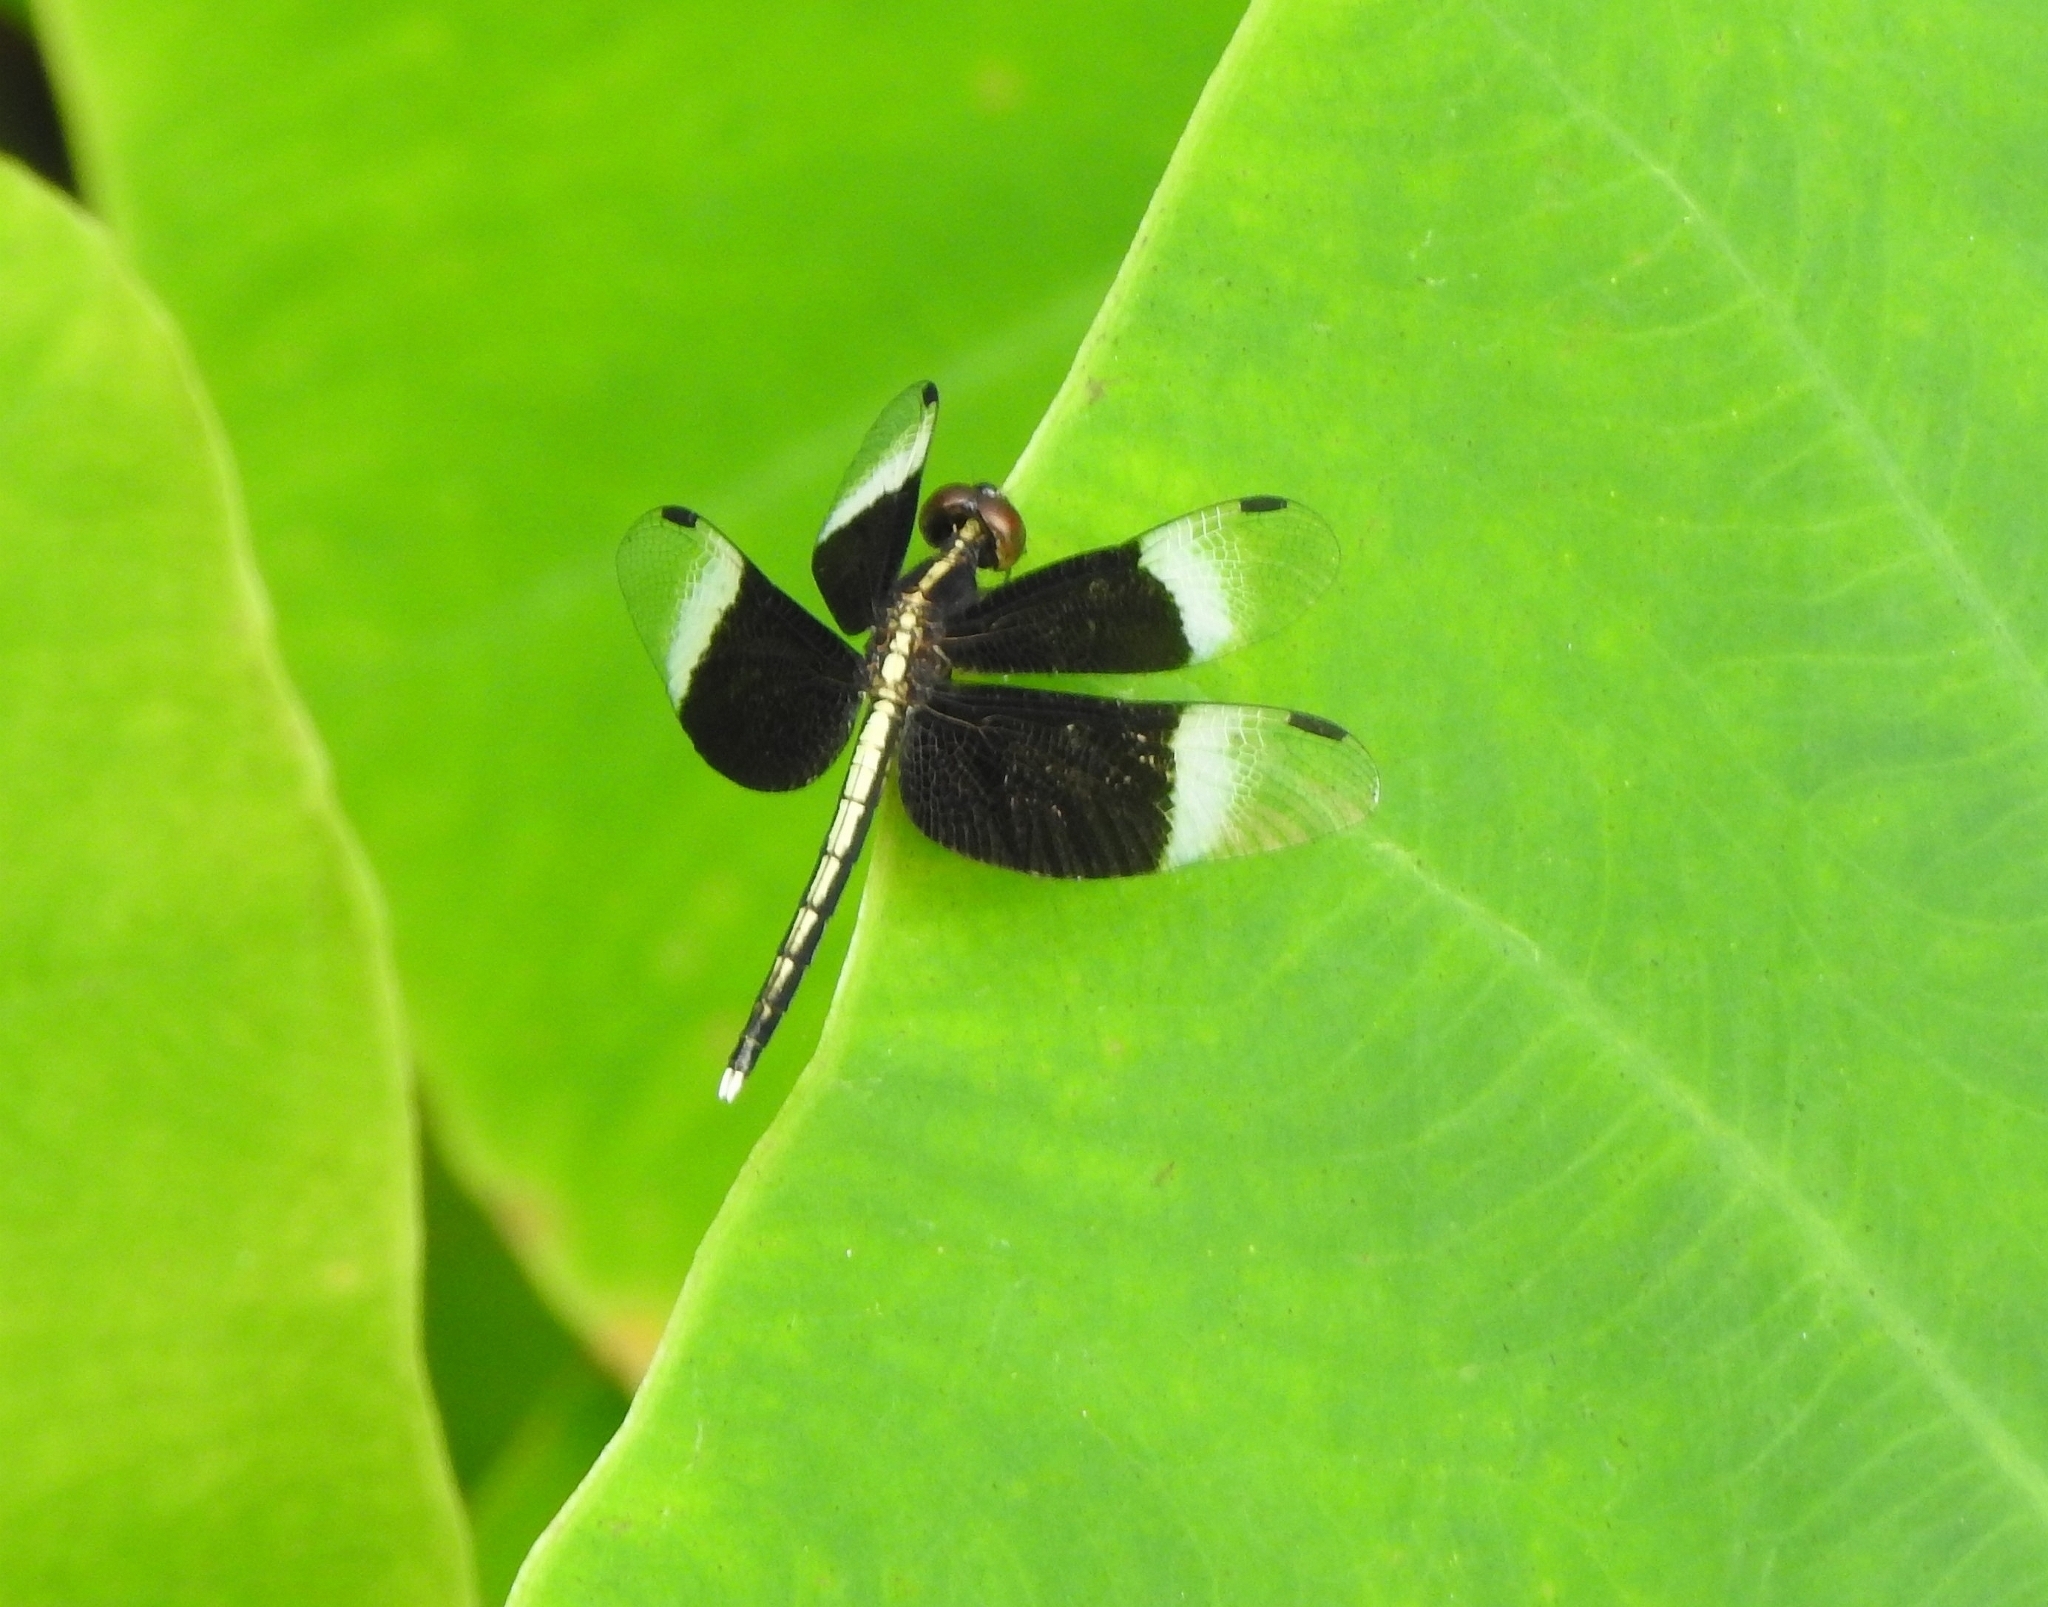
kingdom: Animalia
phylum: Arthropoda
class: Insecta
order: Odonata
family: Libellulidae
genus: Neurothemis
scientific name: Neurothemis tullia
